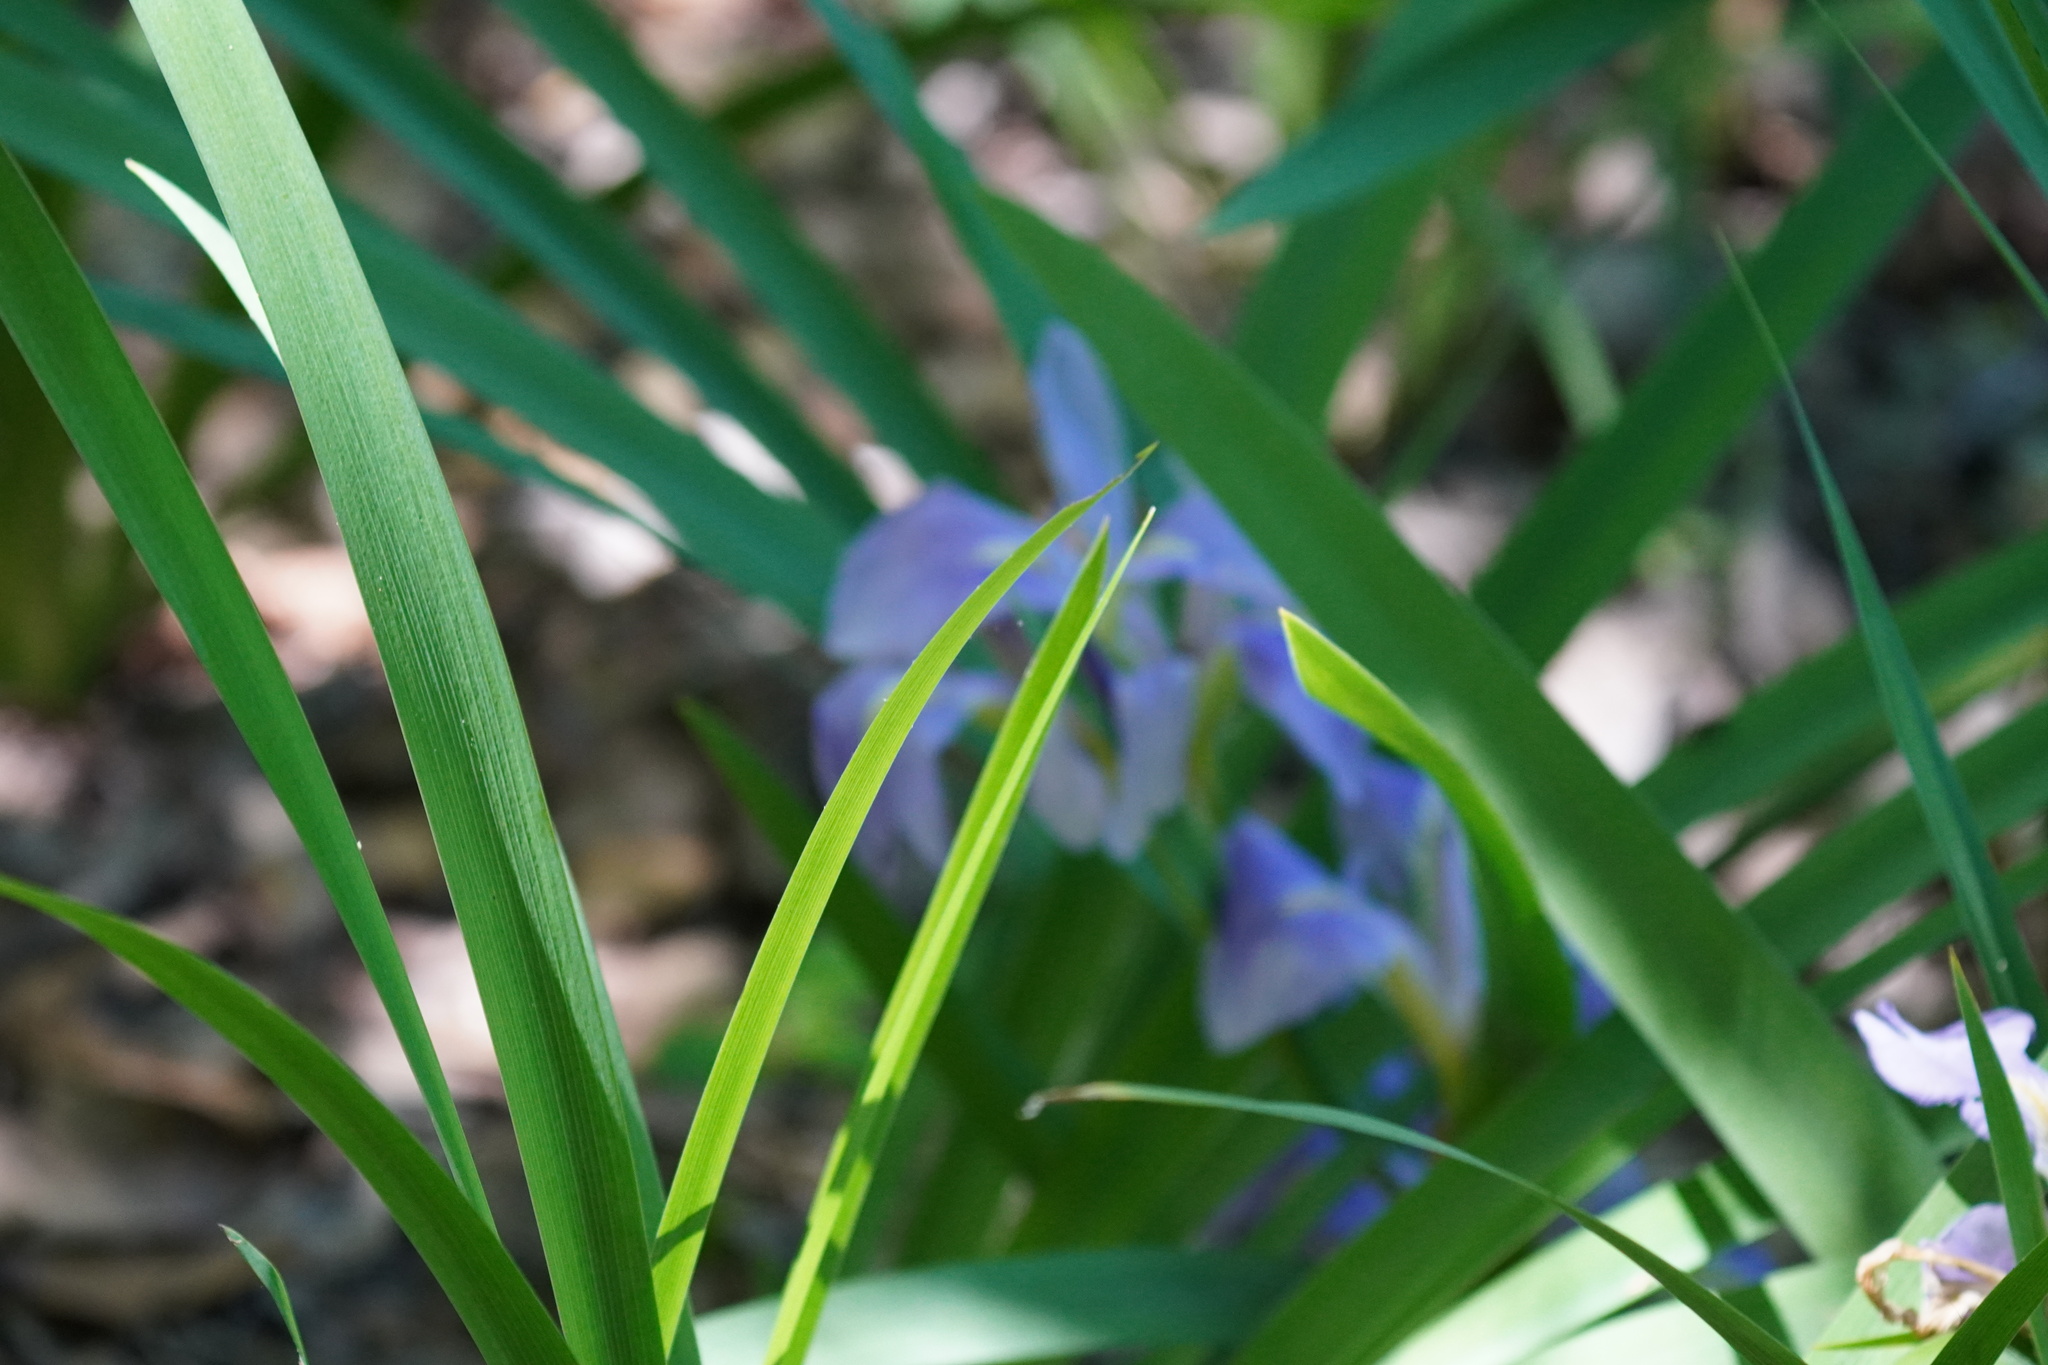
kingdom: Plantae
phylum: Tracheophyta
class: Liliopsida
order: Asparagales
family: Iridaceae
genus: Iris
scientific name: Iris brevicaulis
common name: Zigzag iris
